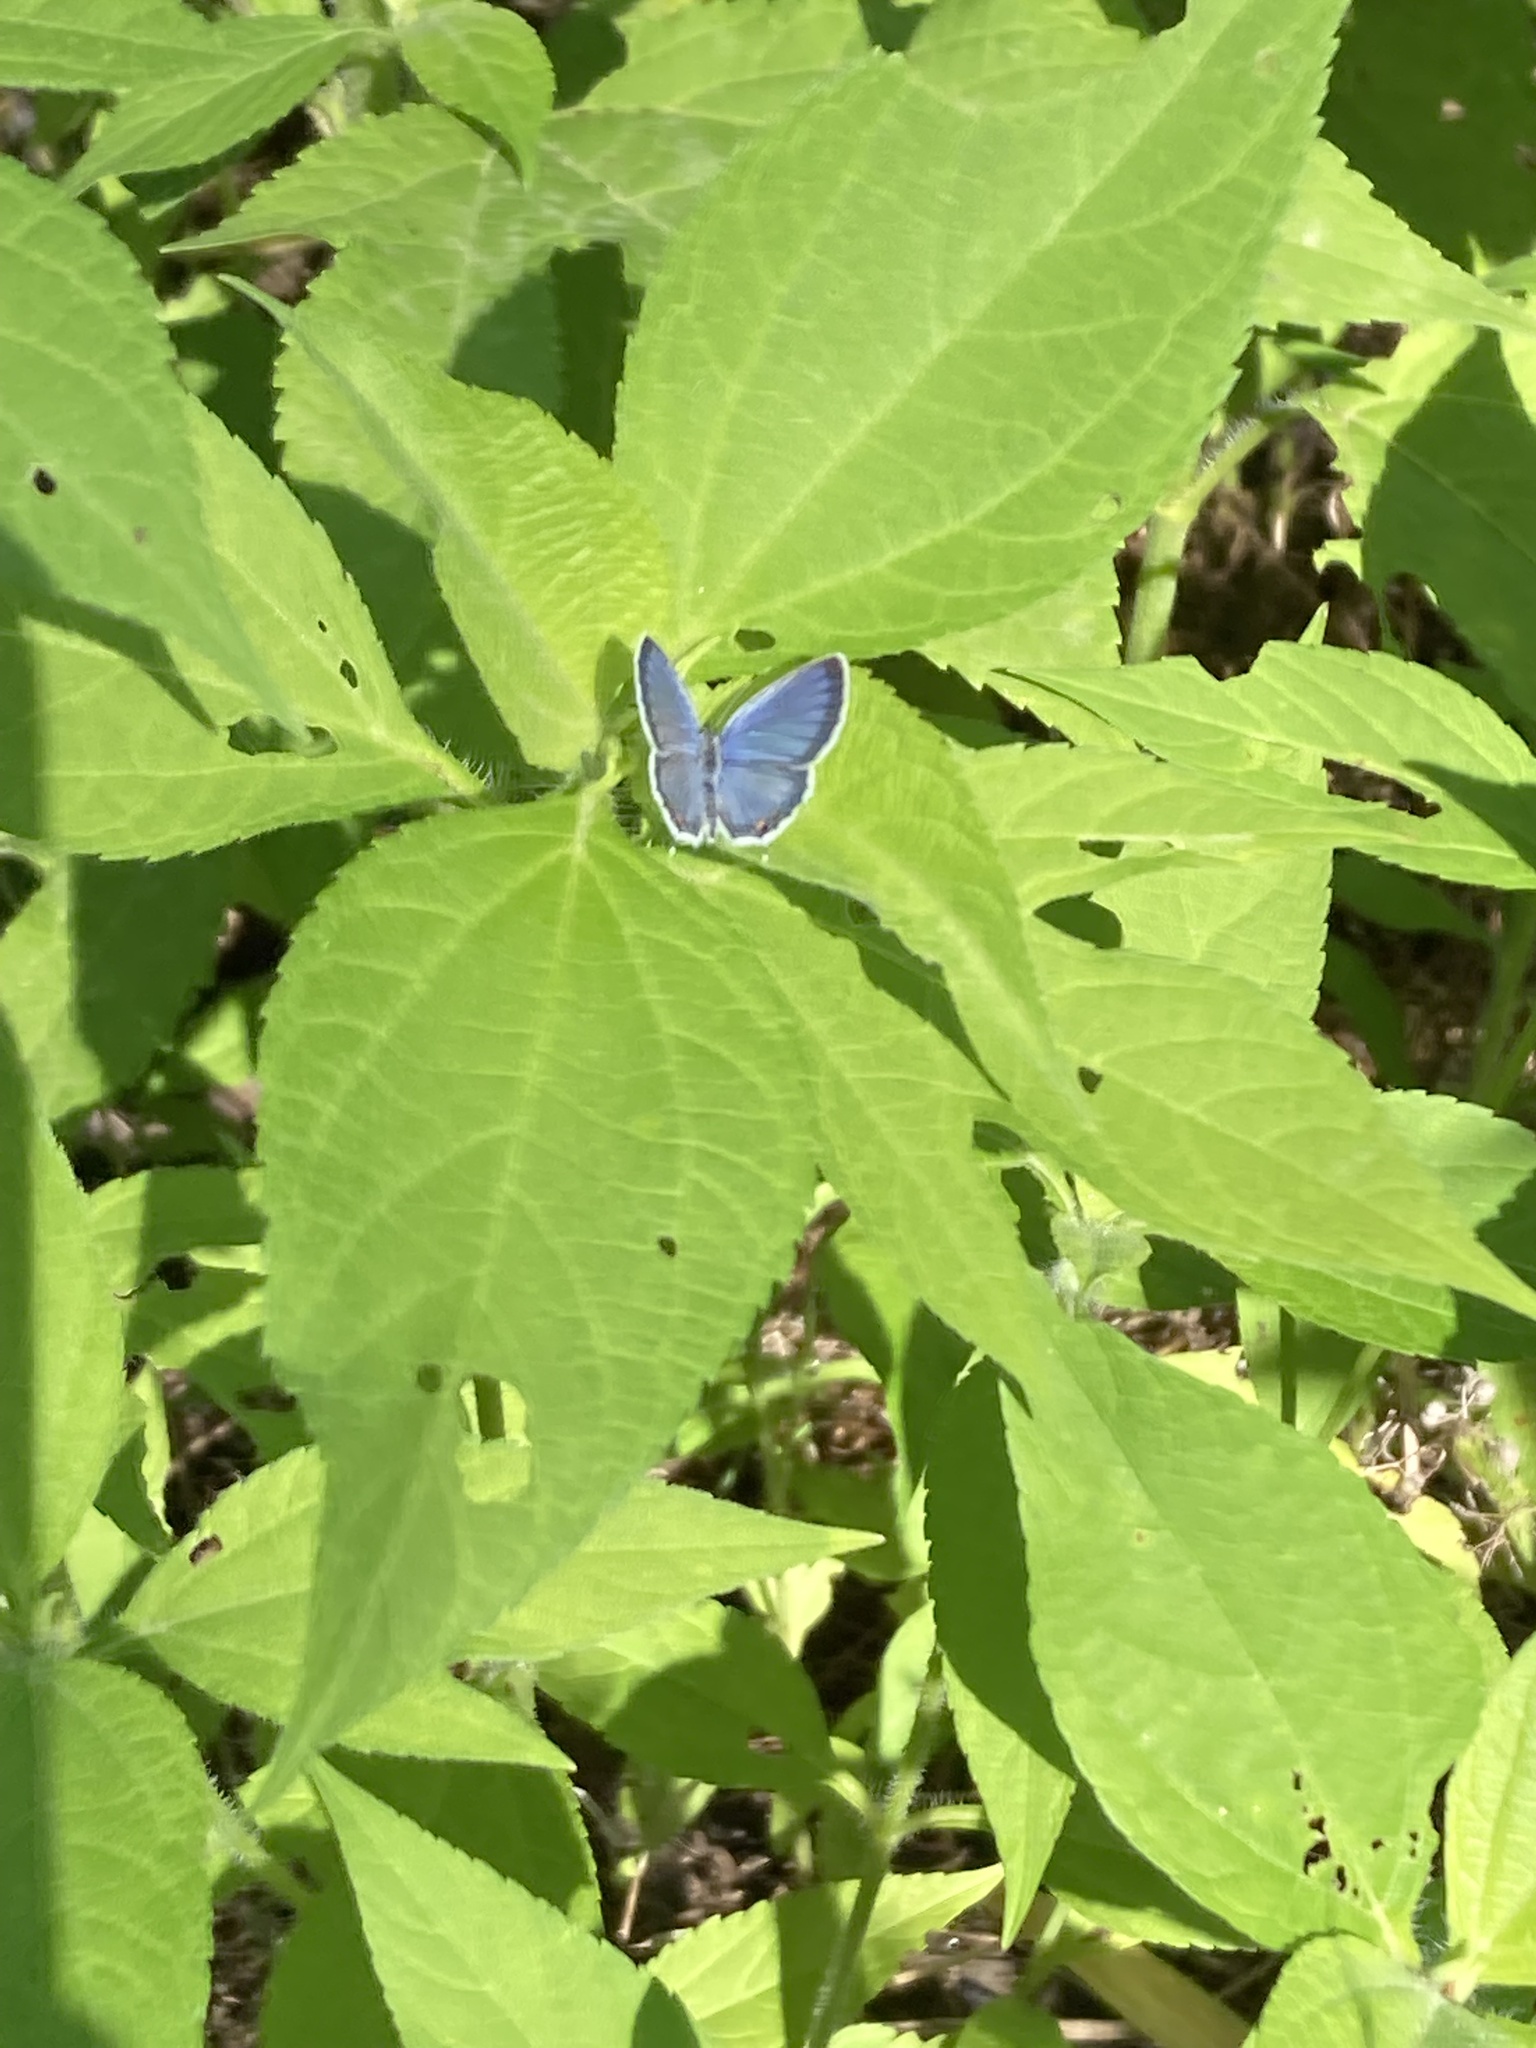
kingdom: Animalia
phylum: Arthropoda
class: Insecta
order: Lepidoptera
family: Lycaenidae
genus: Elkalyce
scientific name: Elkalyce comyntas
